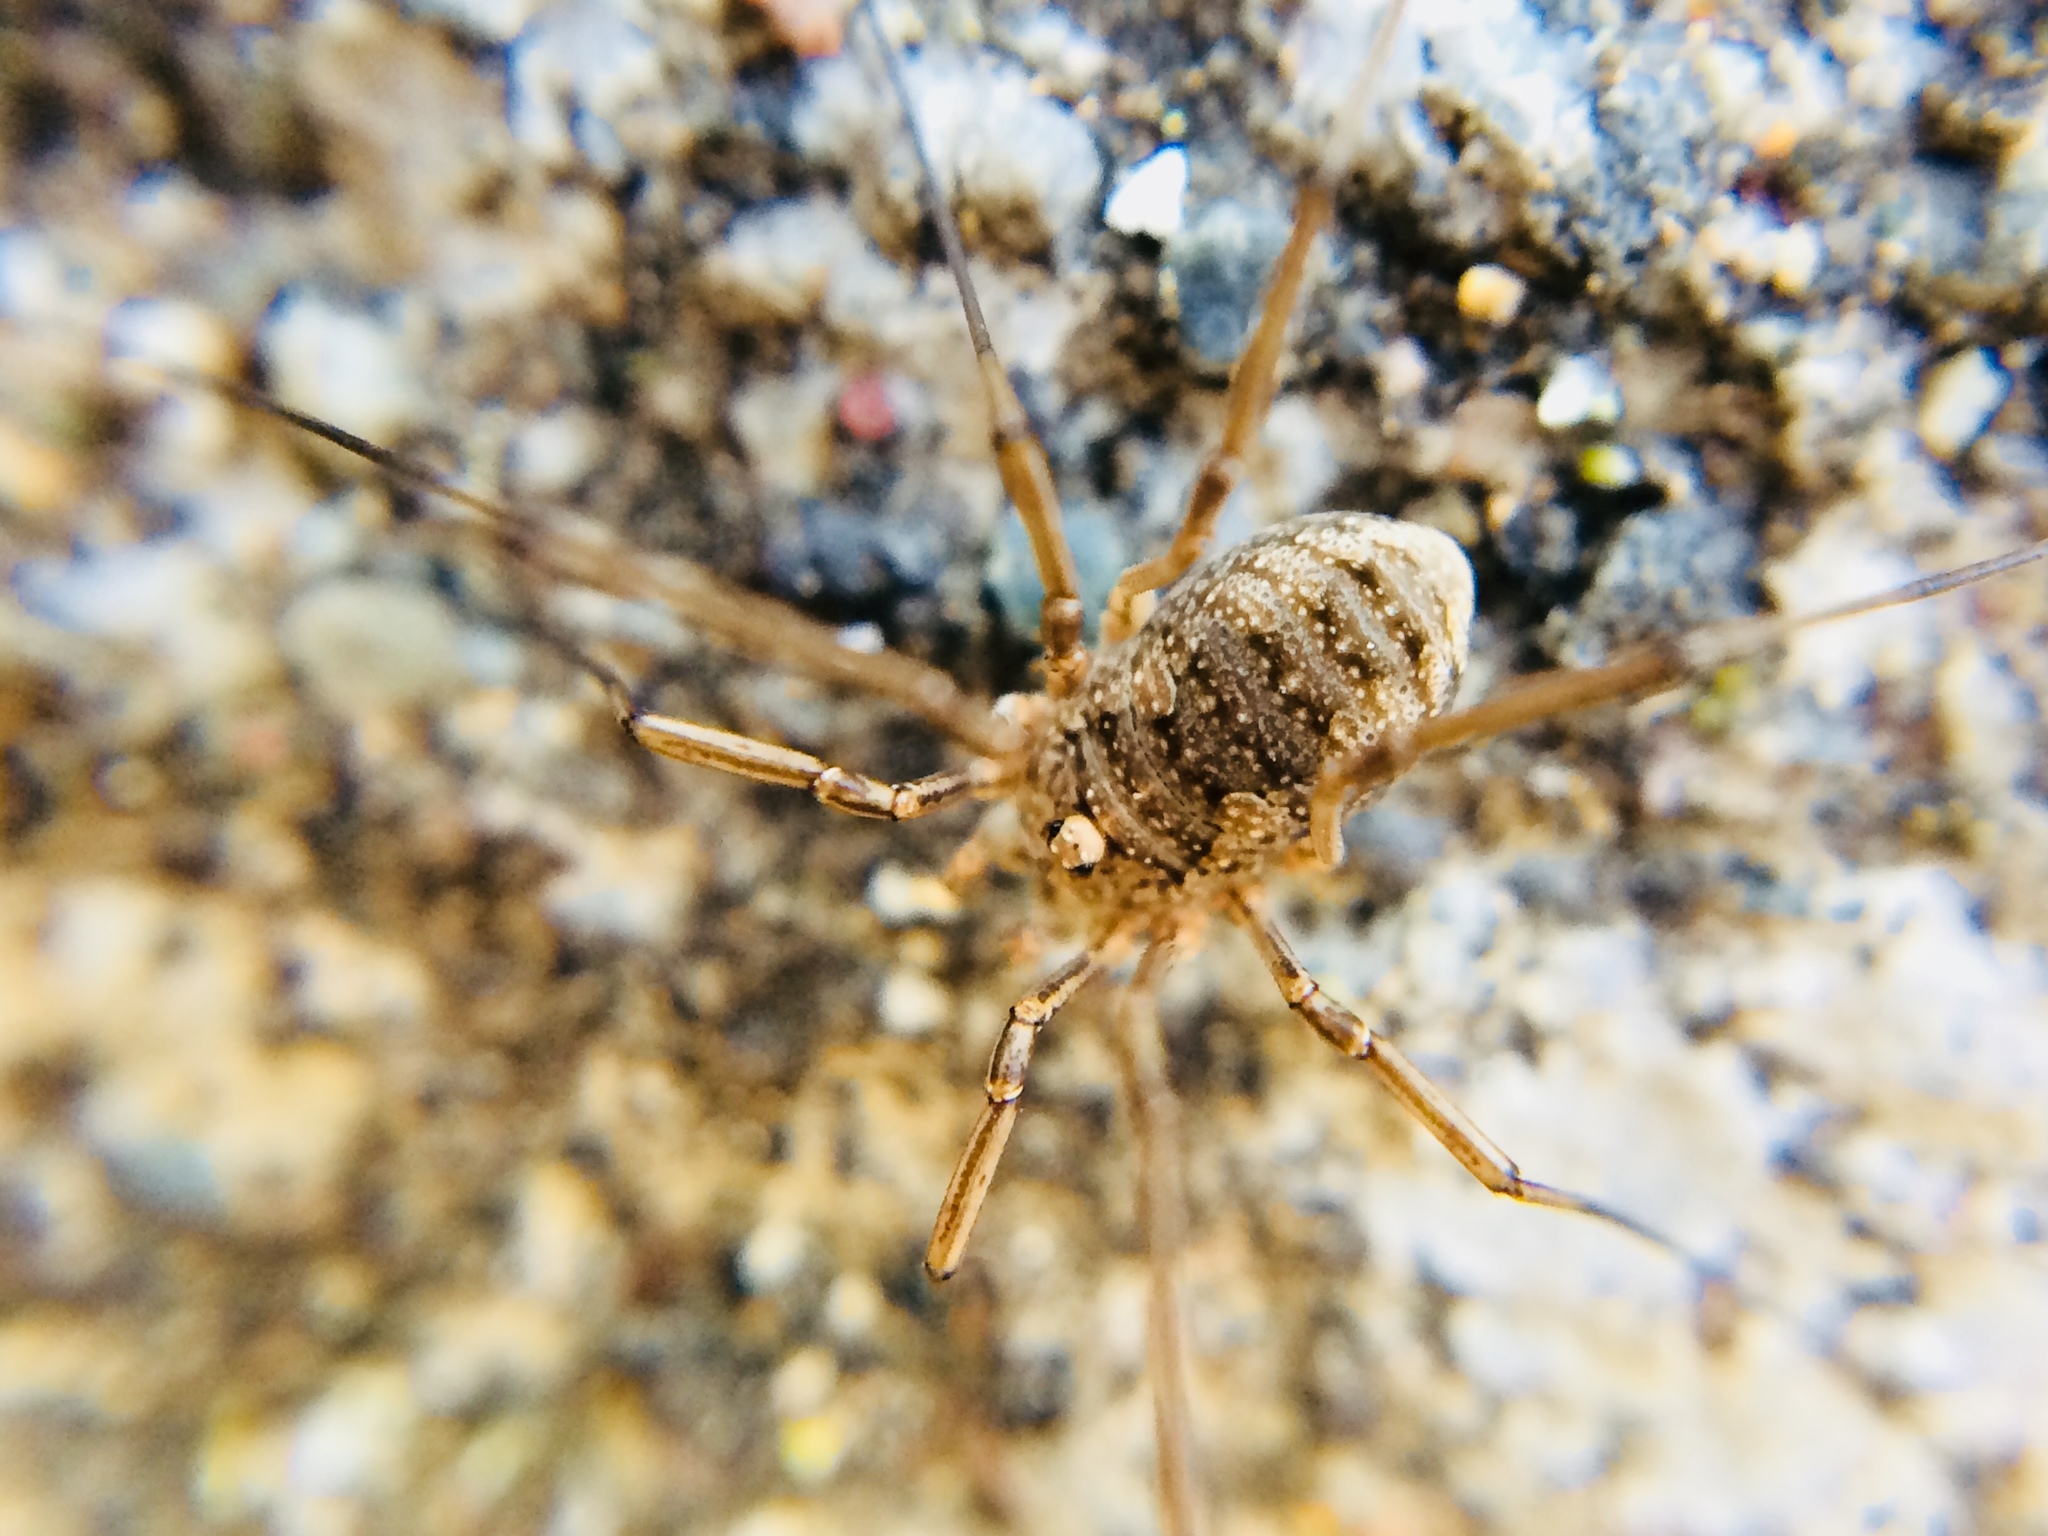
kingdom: Animalia
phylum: Arthropoda
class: Arachnida
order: Opiliones
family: Phalangiidae
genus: Phalangium
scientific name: Phalangium opilio
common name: Daddy longleg
